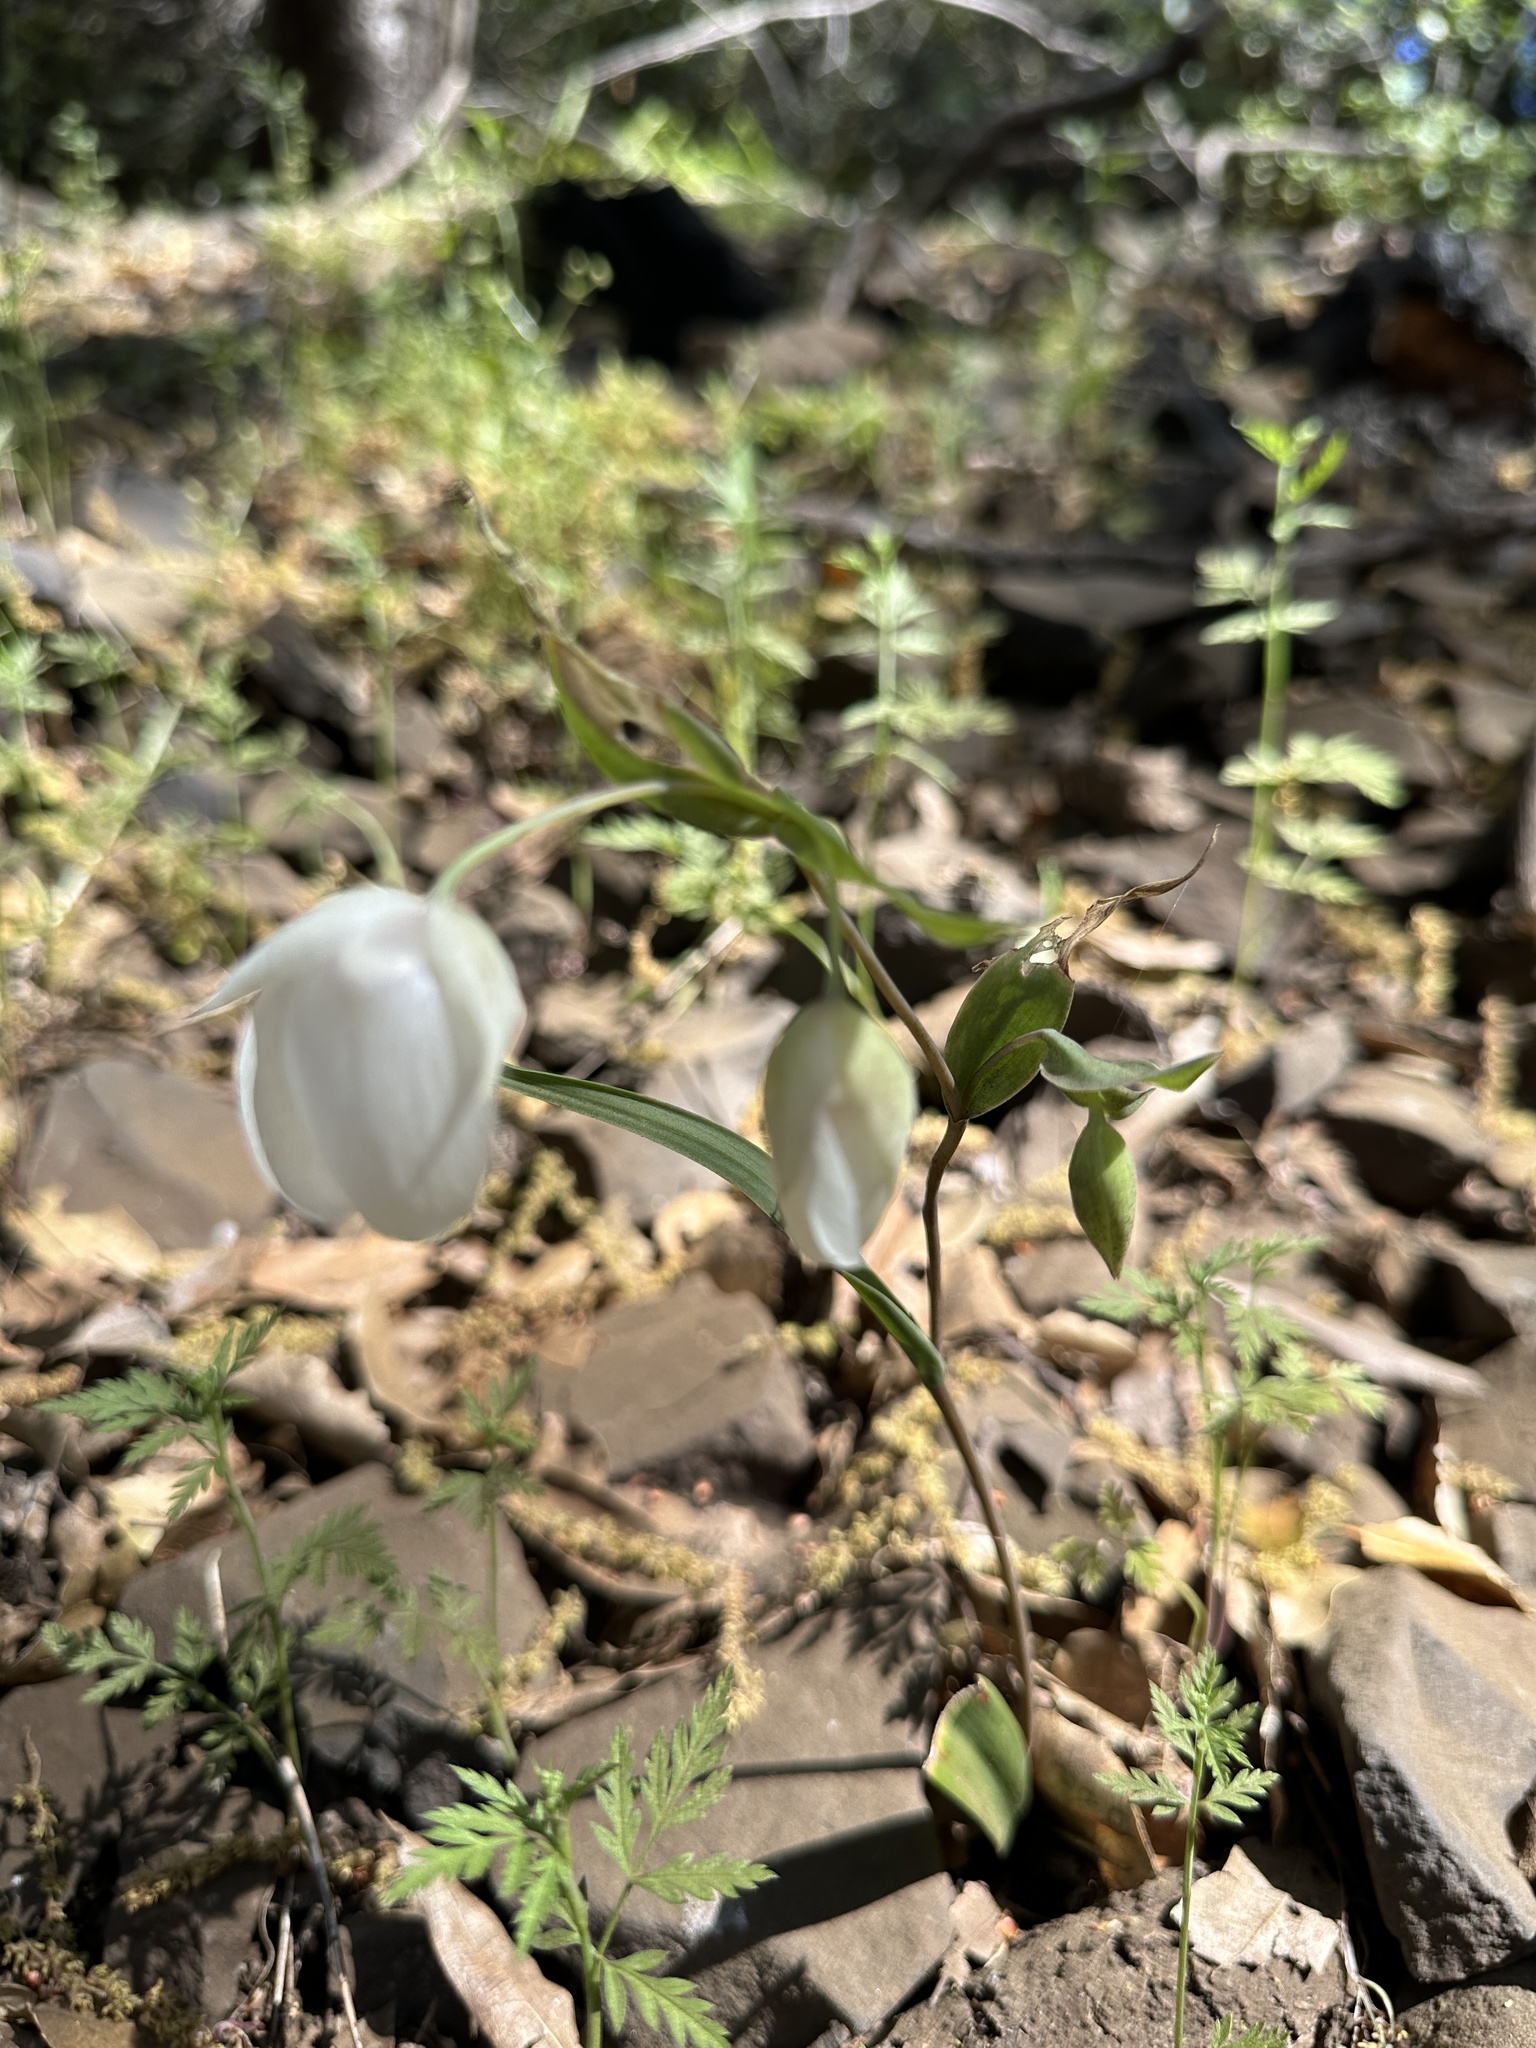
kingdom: Plantae
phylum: Tracheophyta
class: Liliopsida
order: Liliales
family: Liliaceae
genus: Calochortus
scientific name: Calochortus albus
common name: Fairy-lantern
